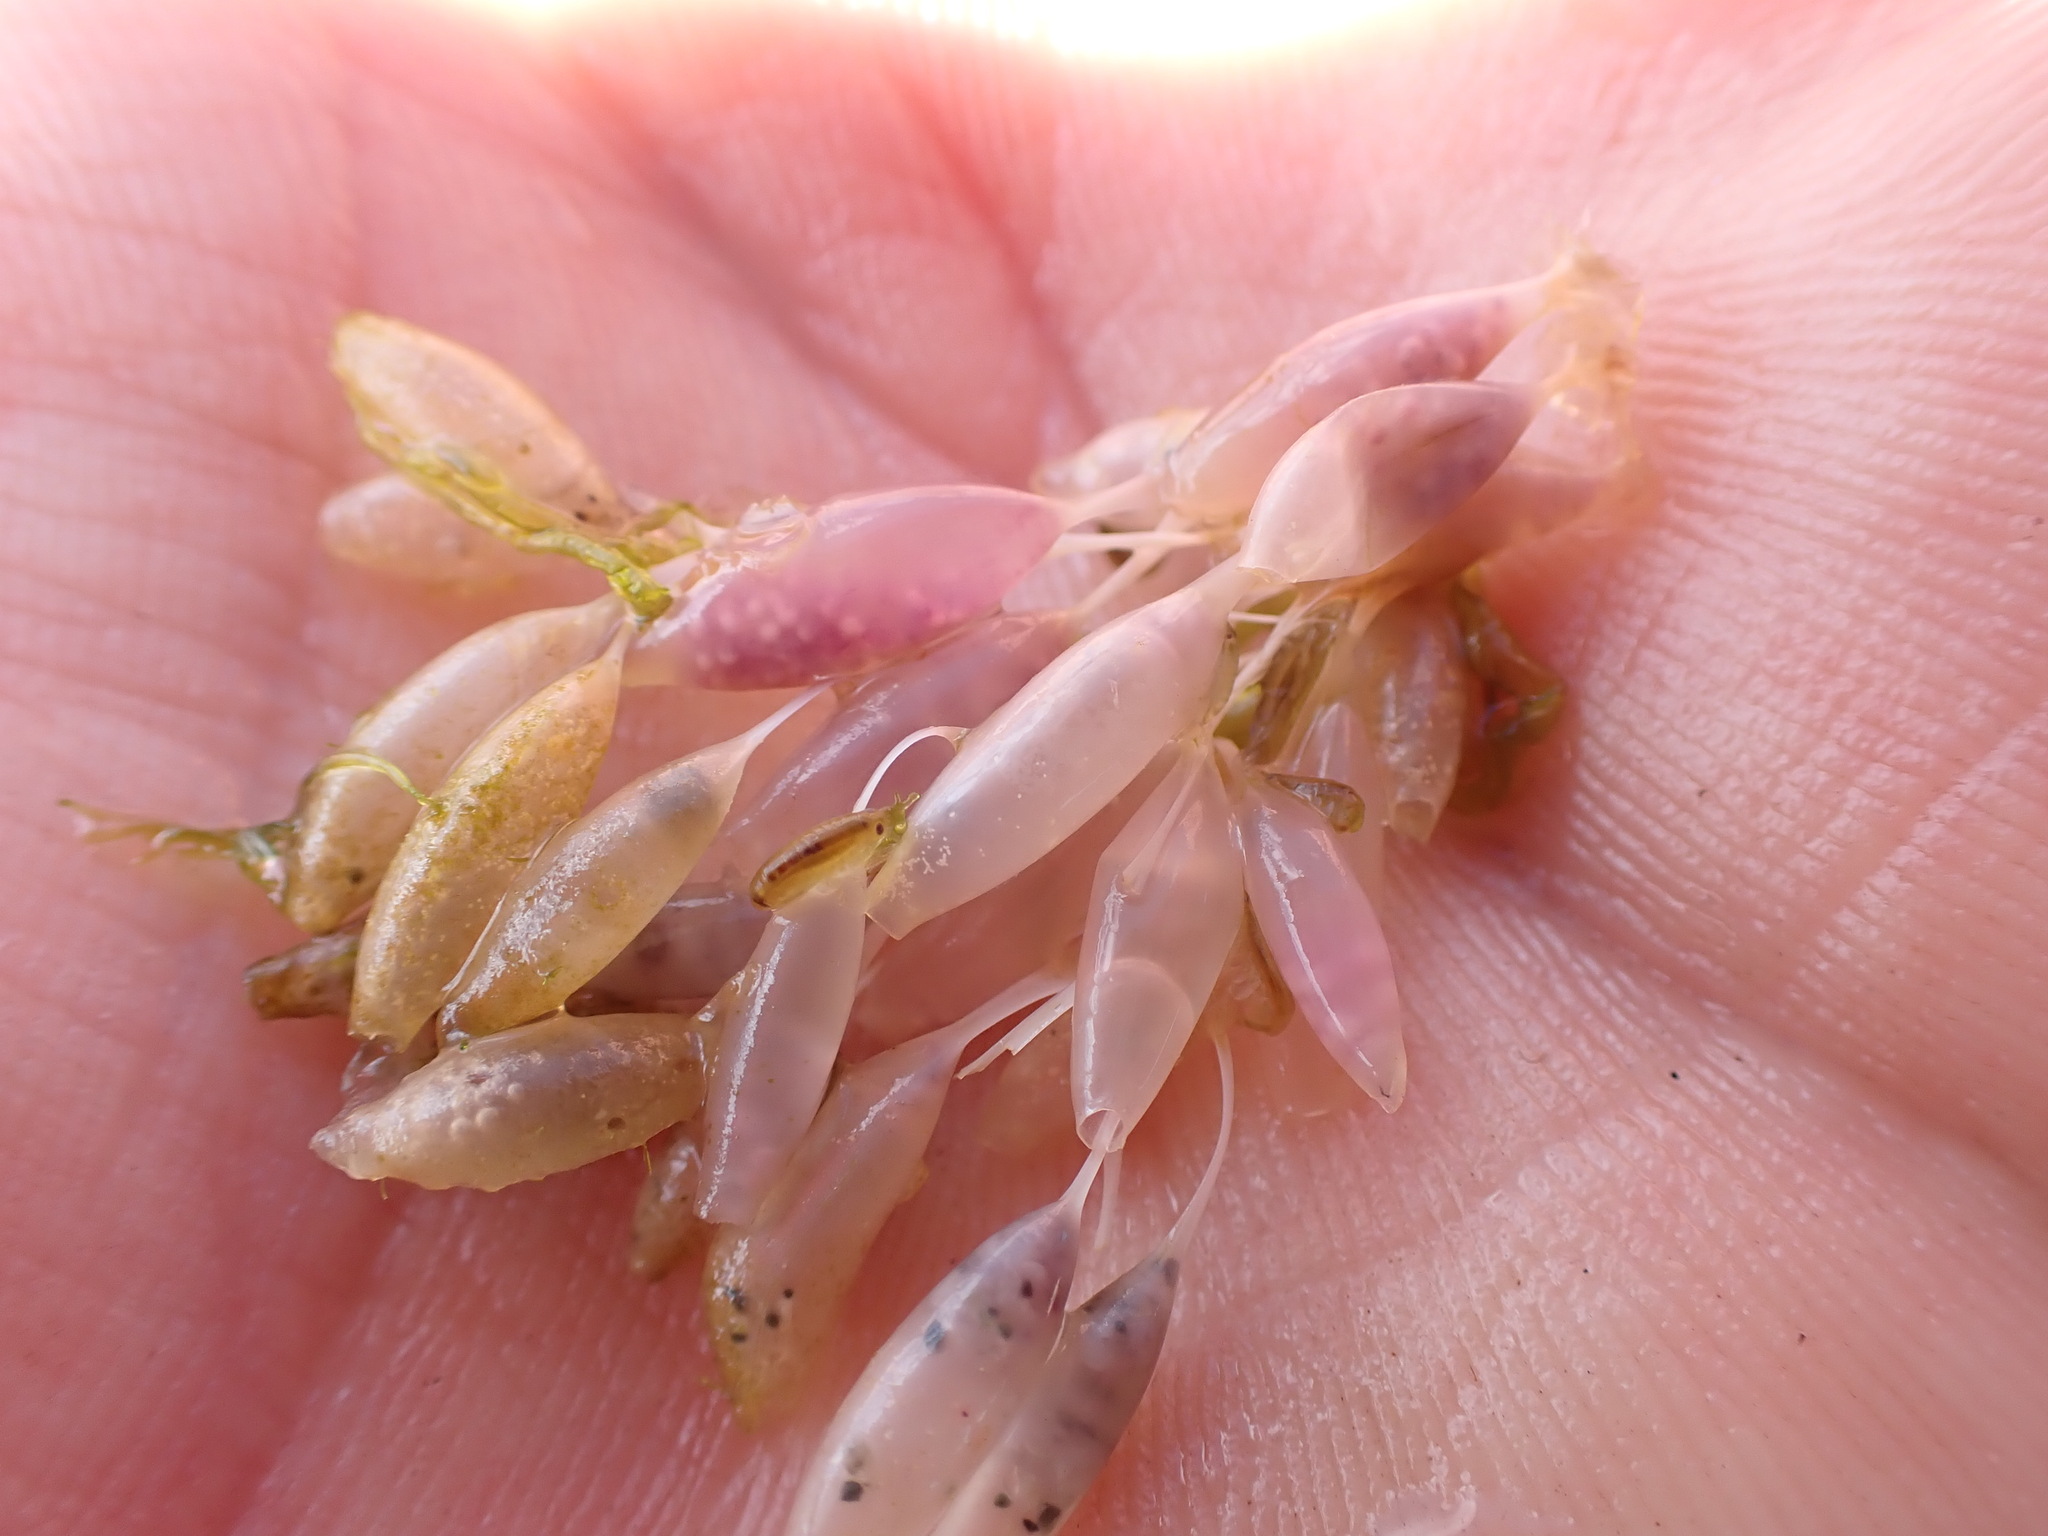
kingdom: Animalia
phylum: Mollusca
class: Gastropoda
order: Neogastropoda
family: Muricidae
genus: Nucella
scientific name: Nucella lamellosa
